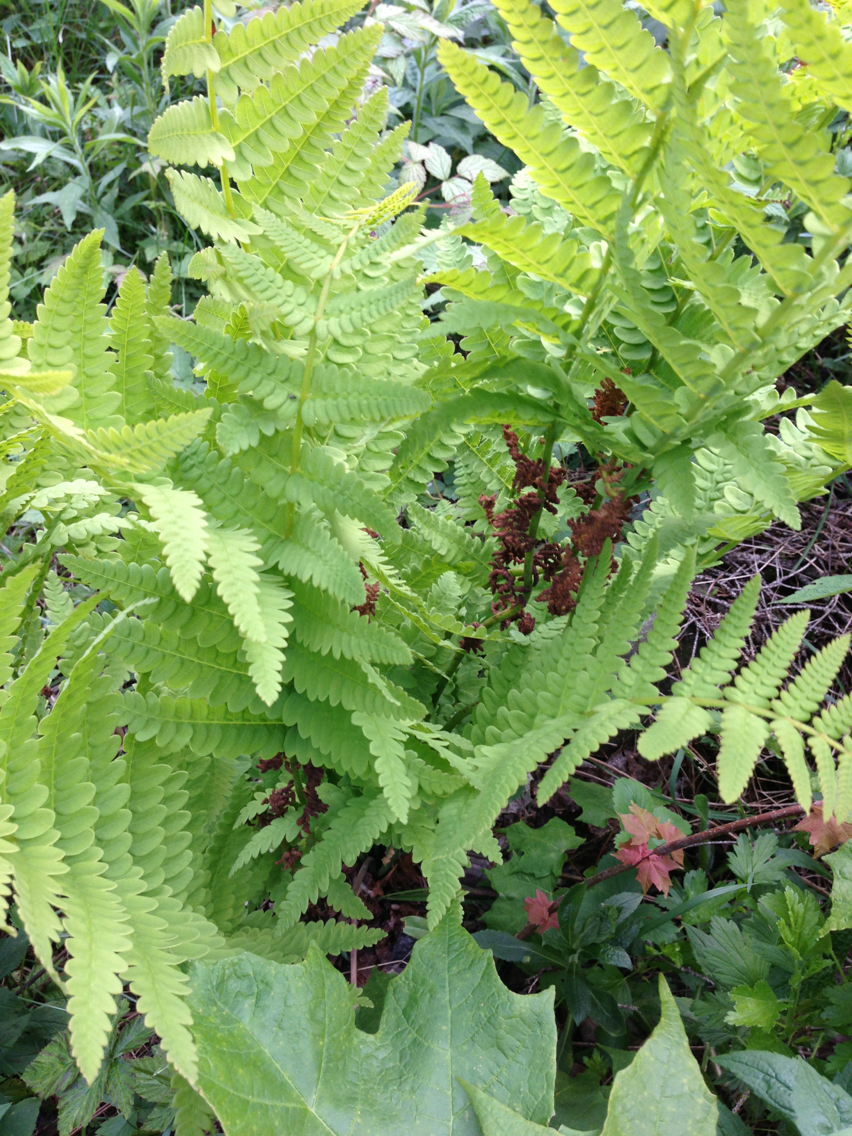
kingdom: Plantae
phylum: Tracheophyta
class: Polypodiopsida
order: Osmundales
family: Osmundaceae
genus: Claytosmunda
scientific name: Claytosmunda claytoniana
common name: Clayton's fern
